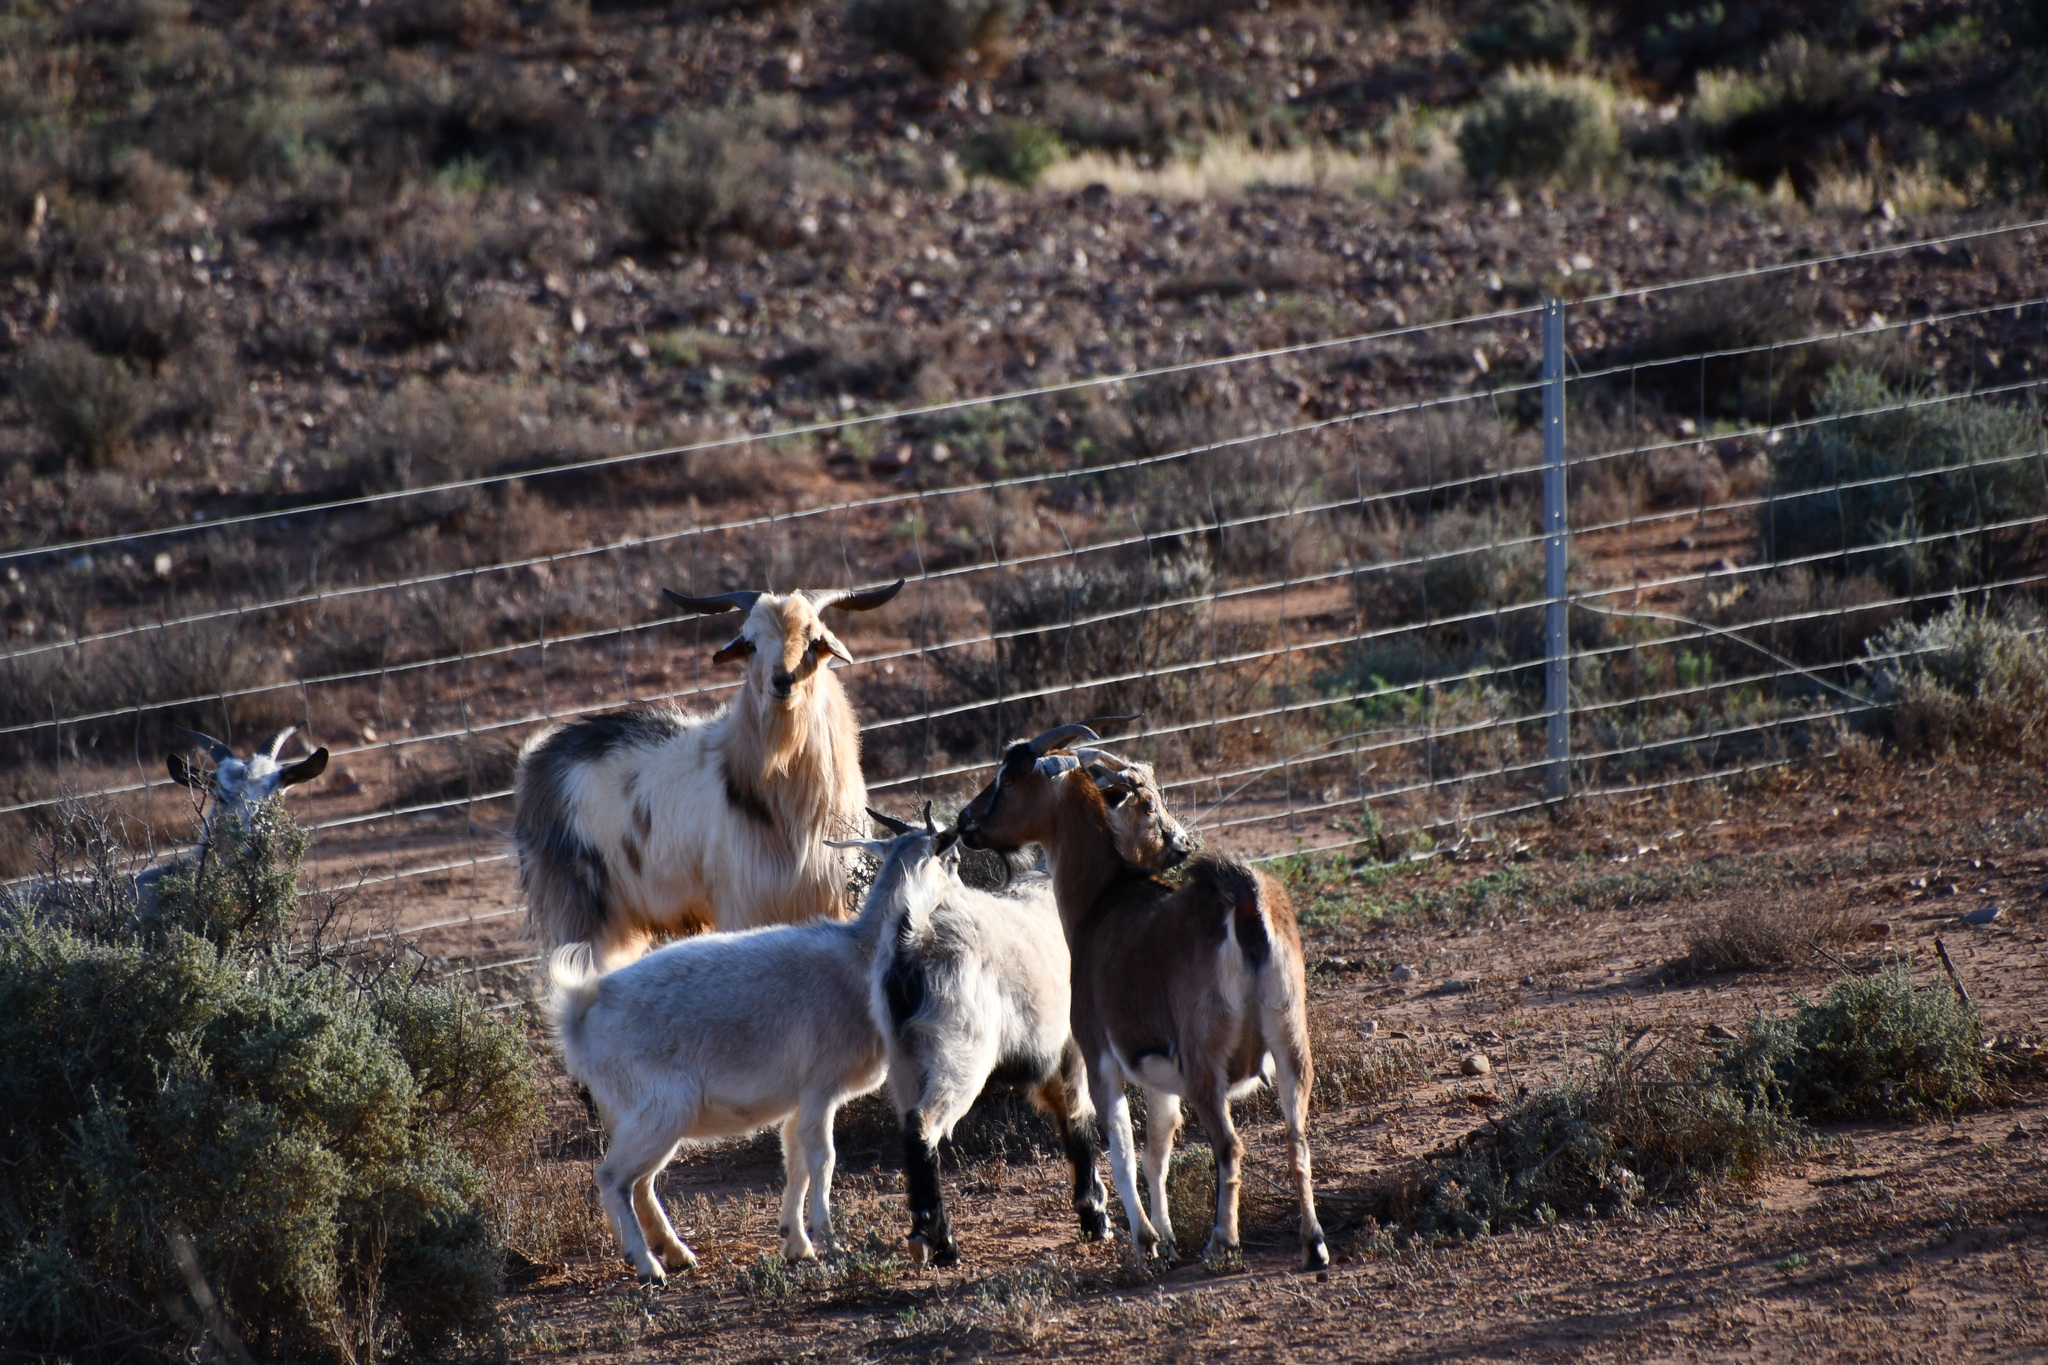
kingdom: Animalia
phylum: Chordata
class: Mammalia
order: Artiodactyla
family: Bovidae
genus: Capra
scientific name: Capra hircus
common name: Domestic goat
